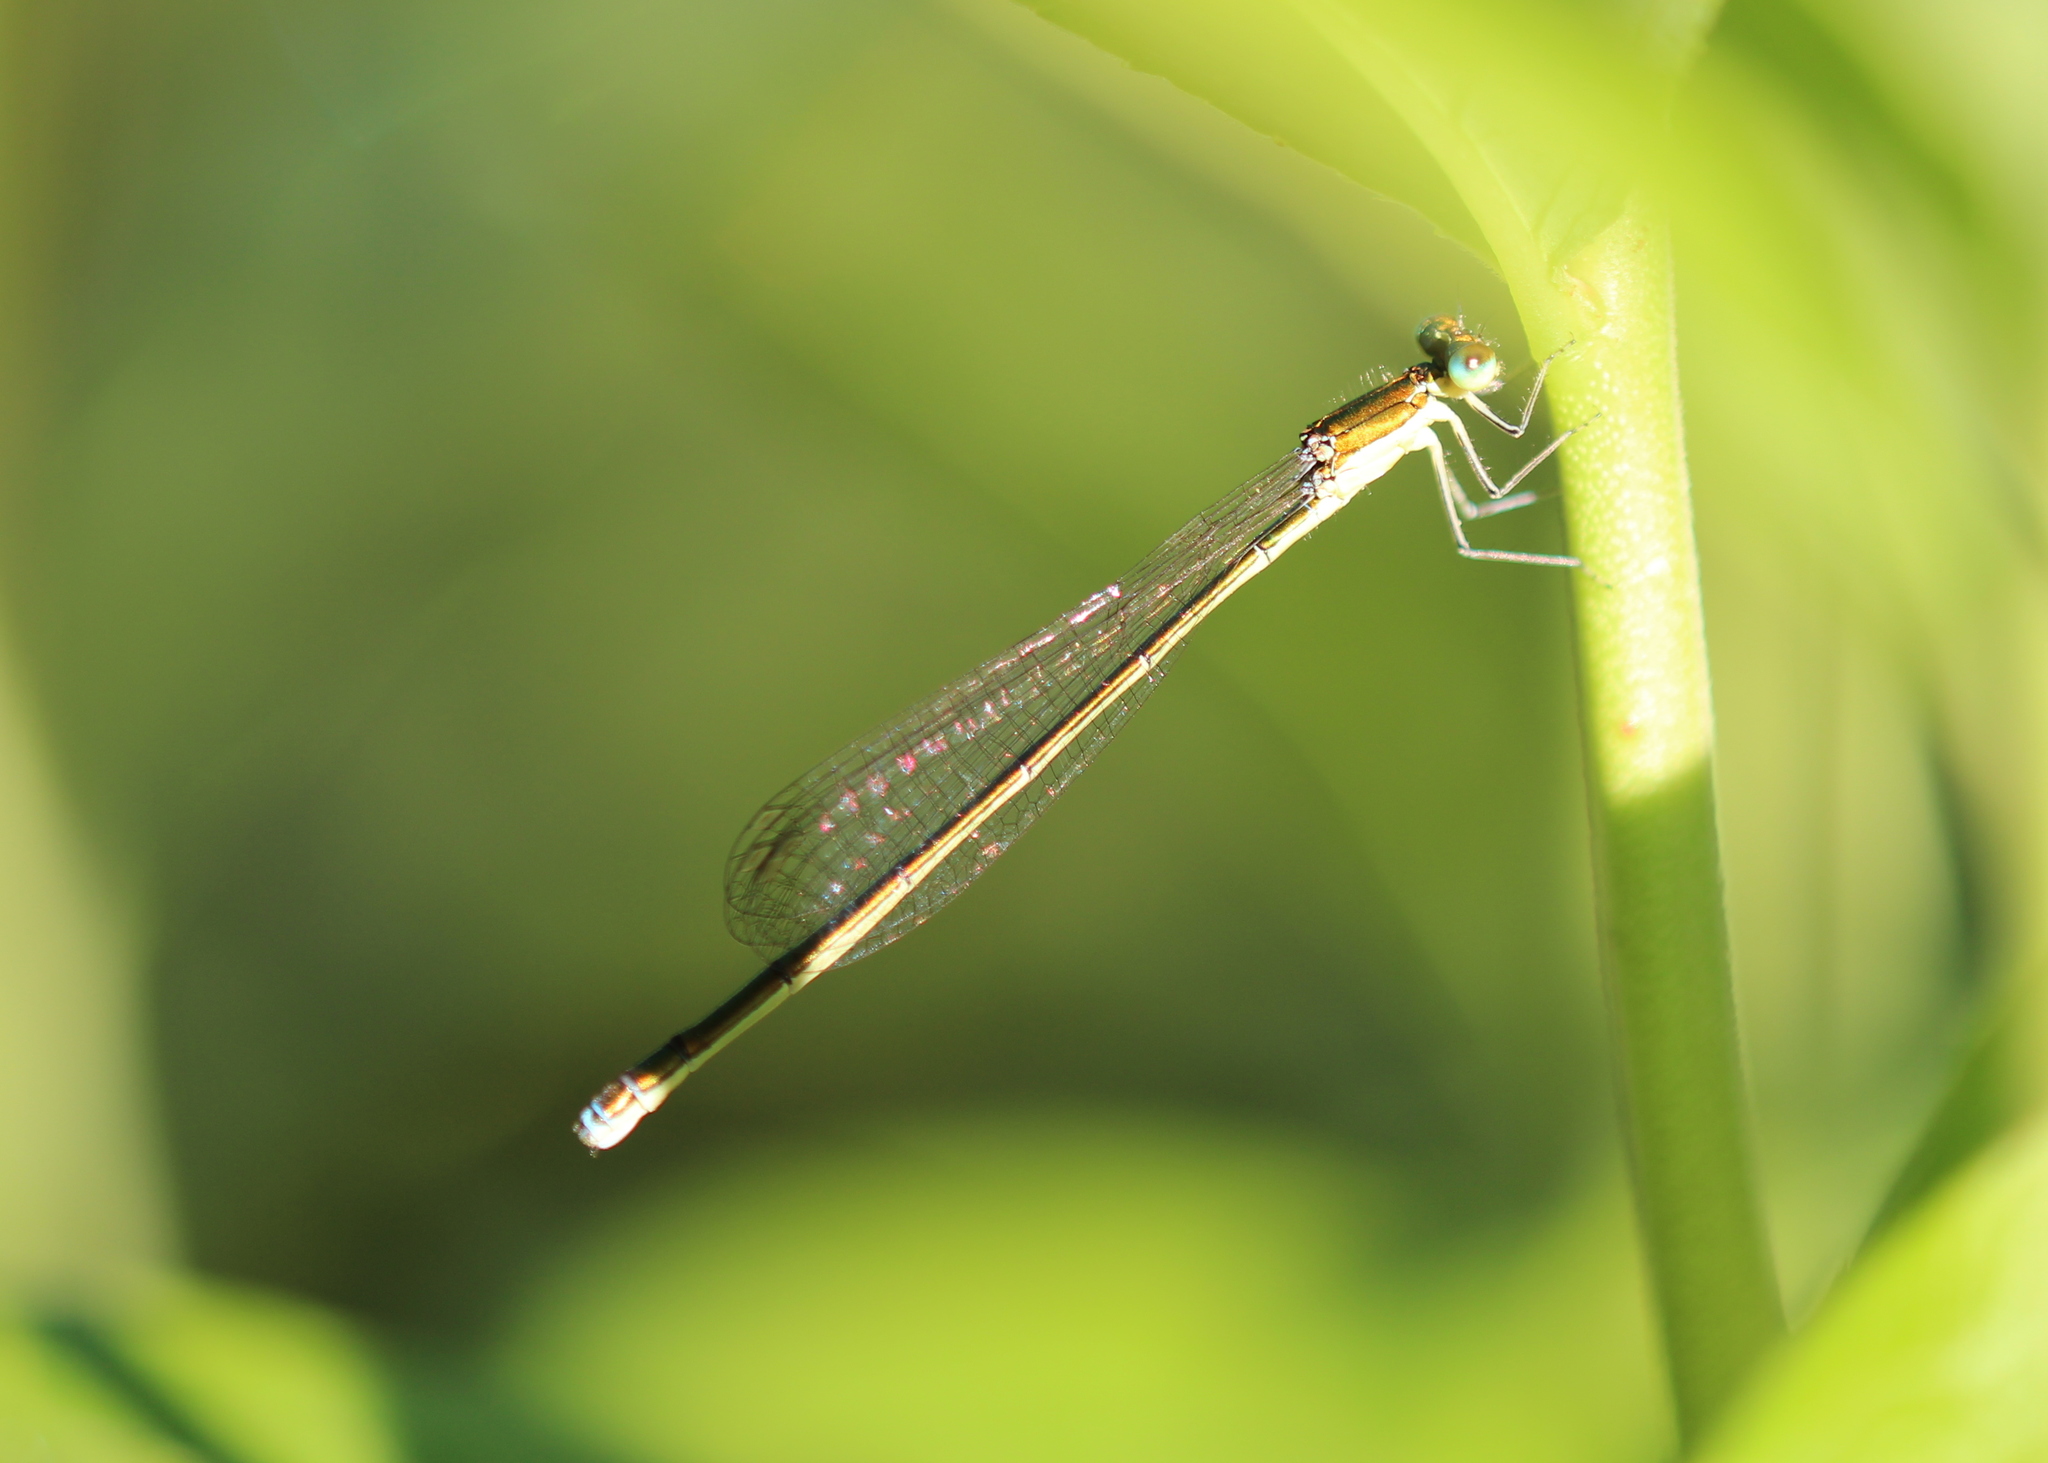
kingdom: Animalia
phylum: Arthropoda
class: Insecta
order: Odonata
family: Coenagrionidae
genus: Nehalennia
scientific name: Nehalennia irene
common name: Sedge sprite
